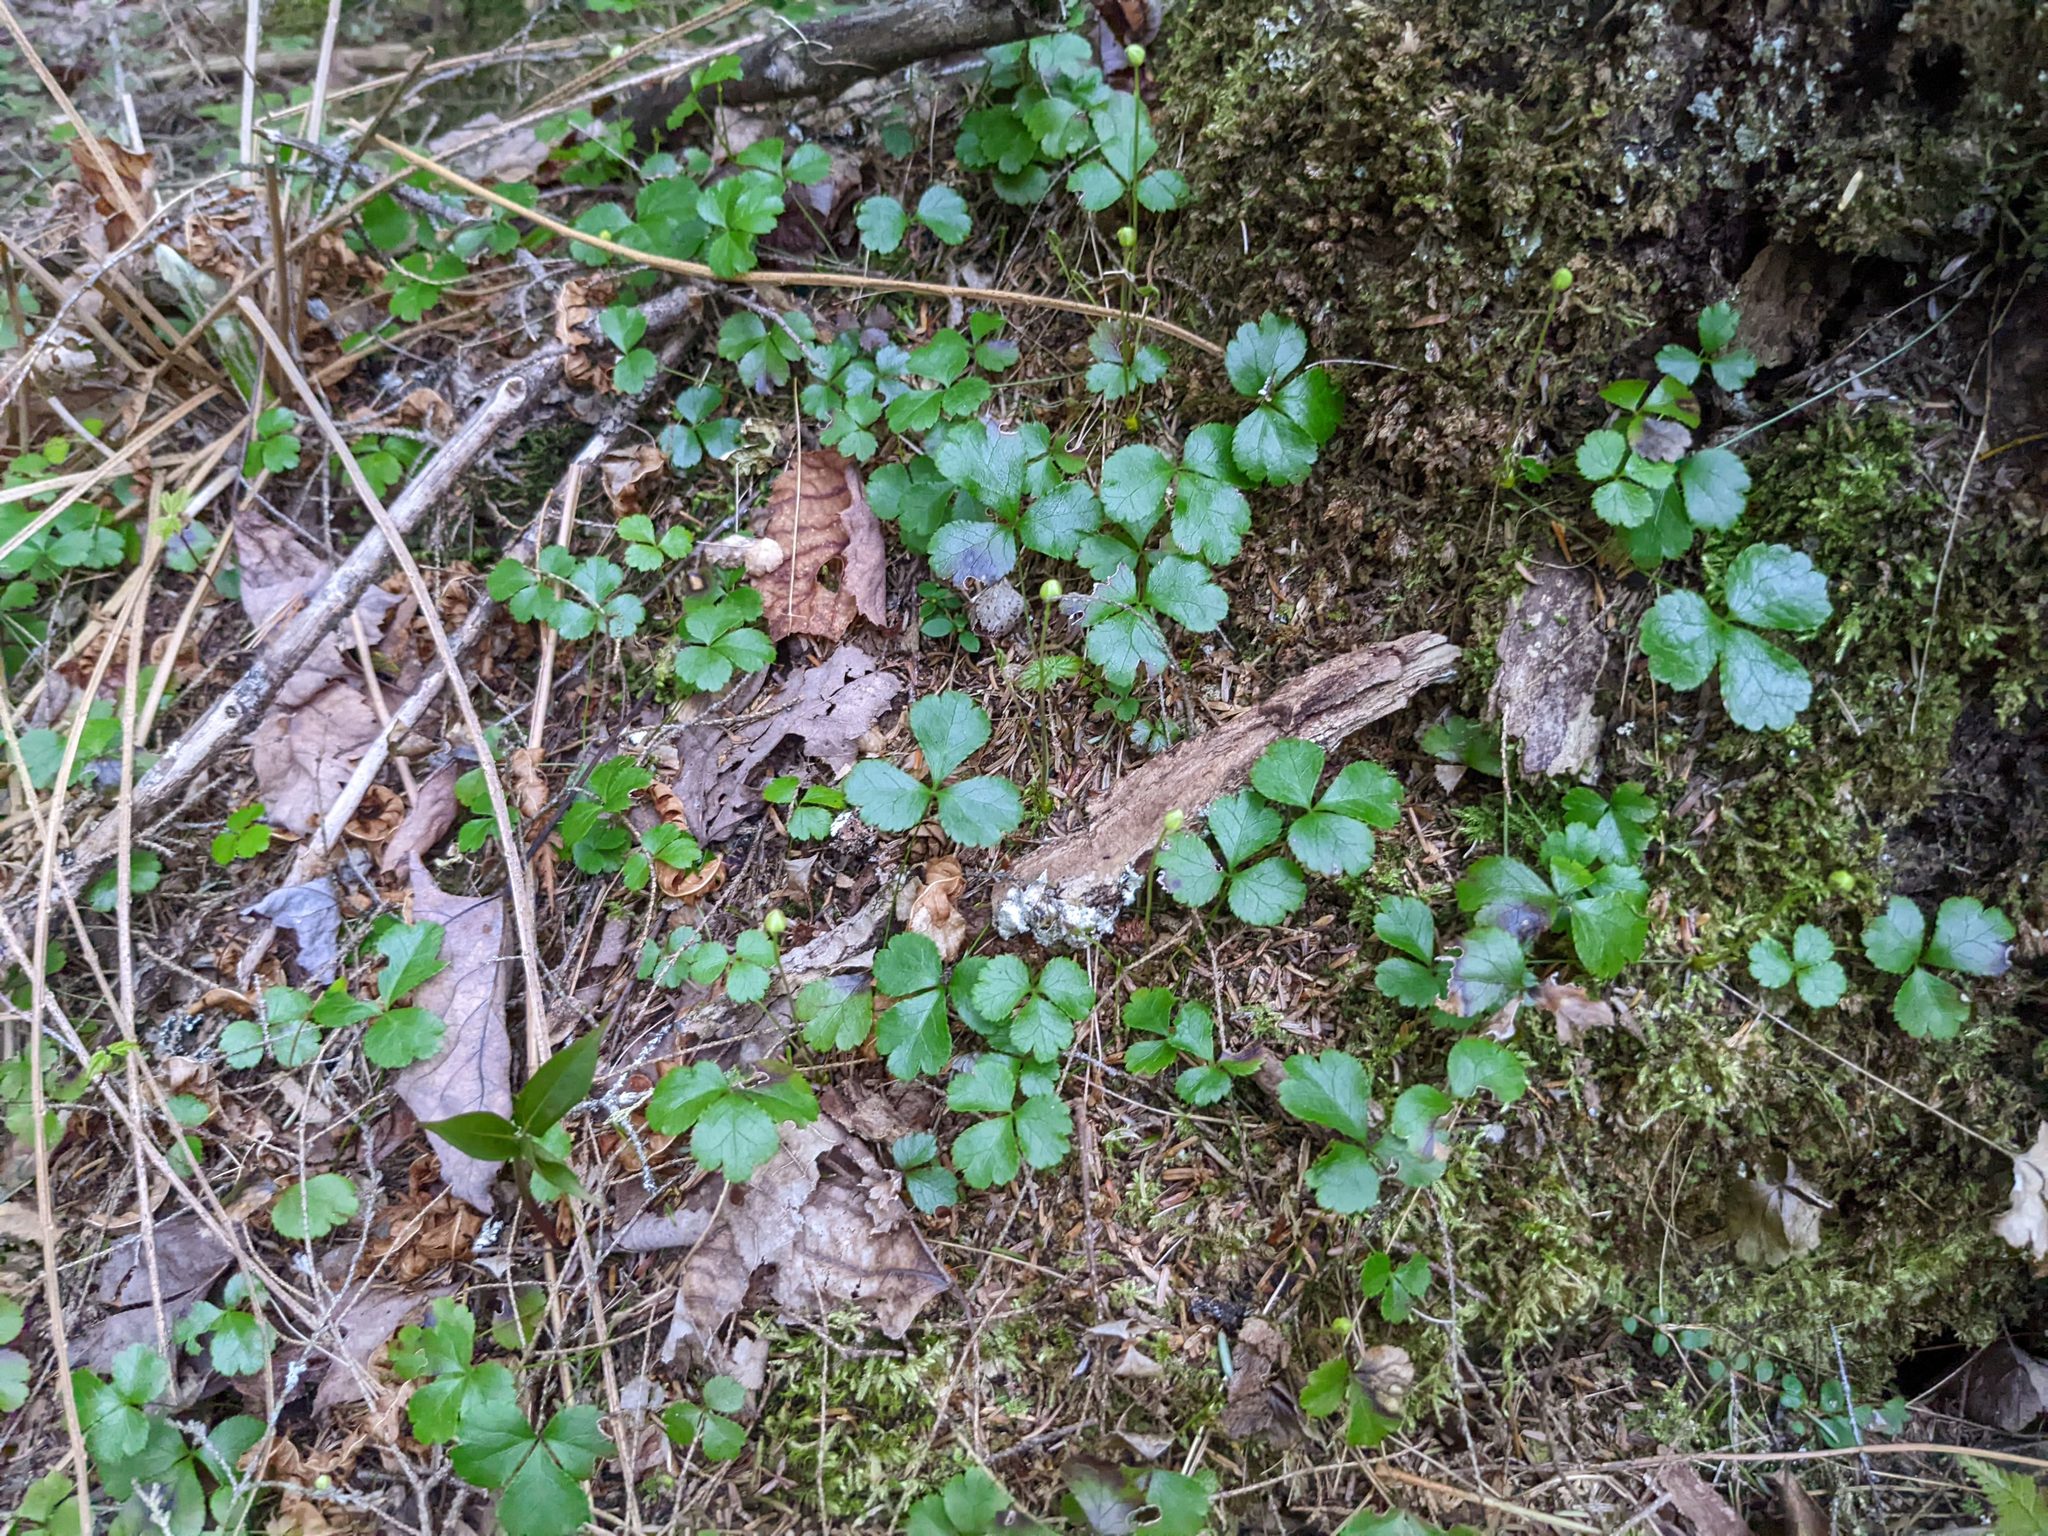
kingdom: Plantae
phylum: Tracheophyta
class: Magnoliopsida
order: Ranunculales
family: Ranunculaceae
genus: Coptis
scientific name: Coptis trifolia
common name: Canker-root
